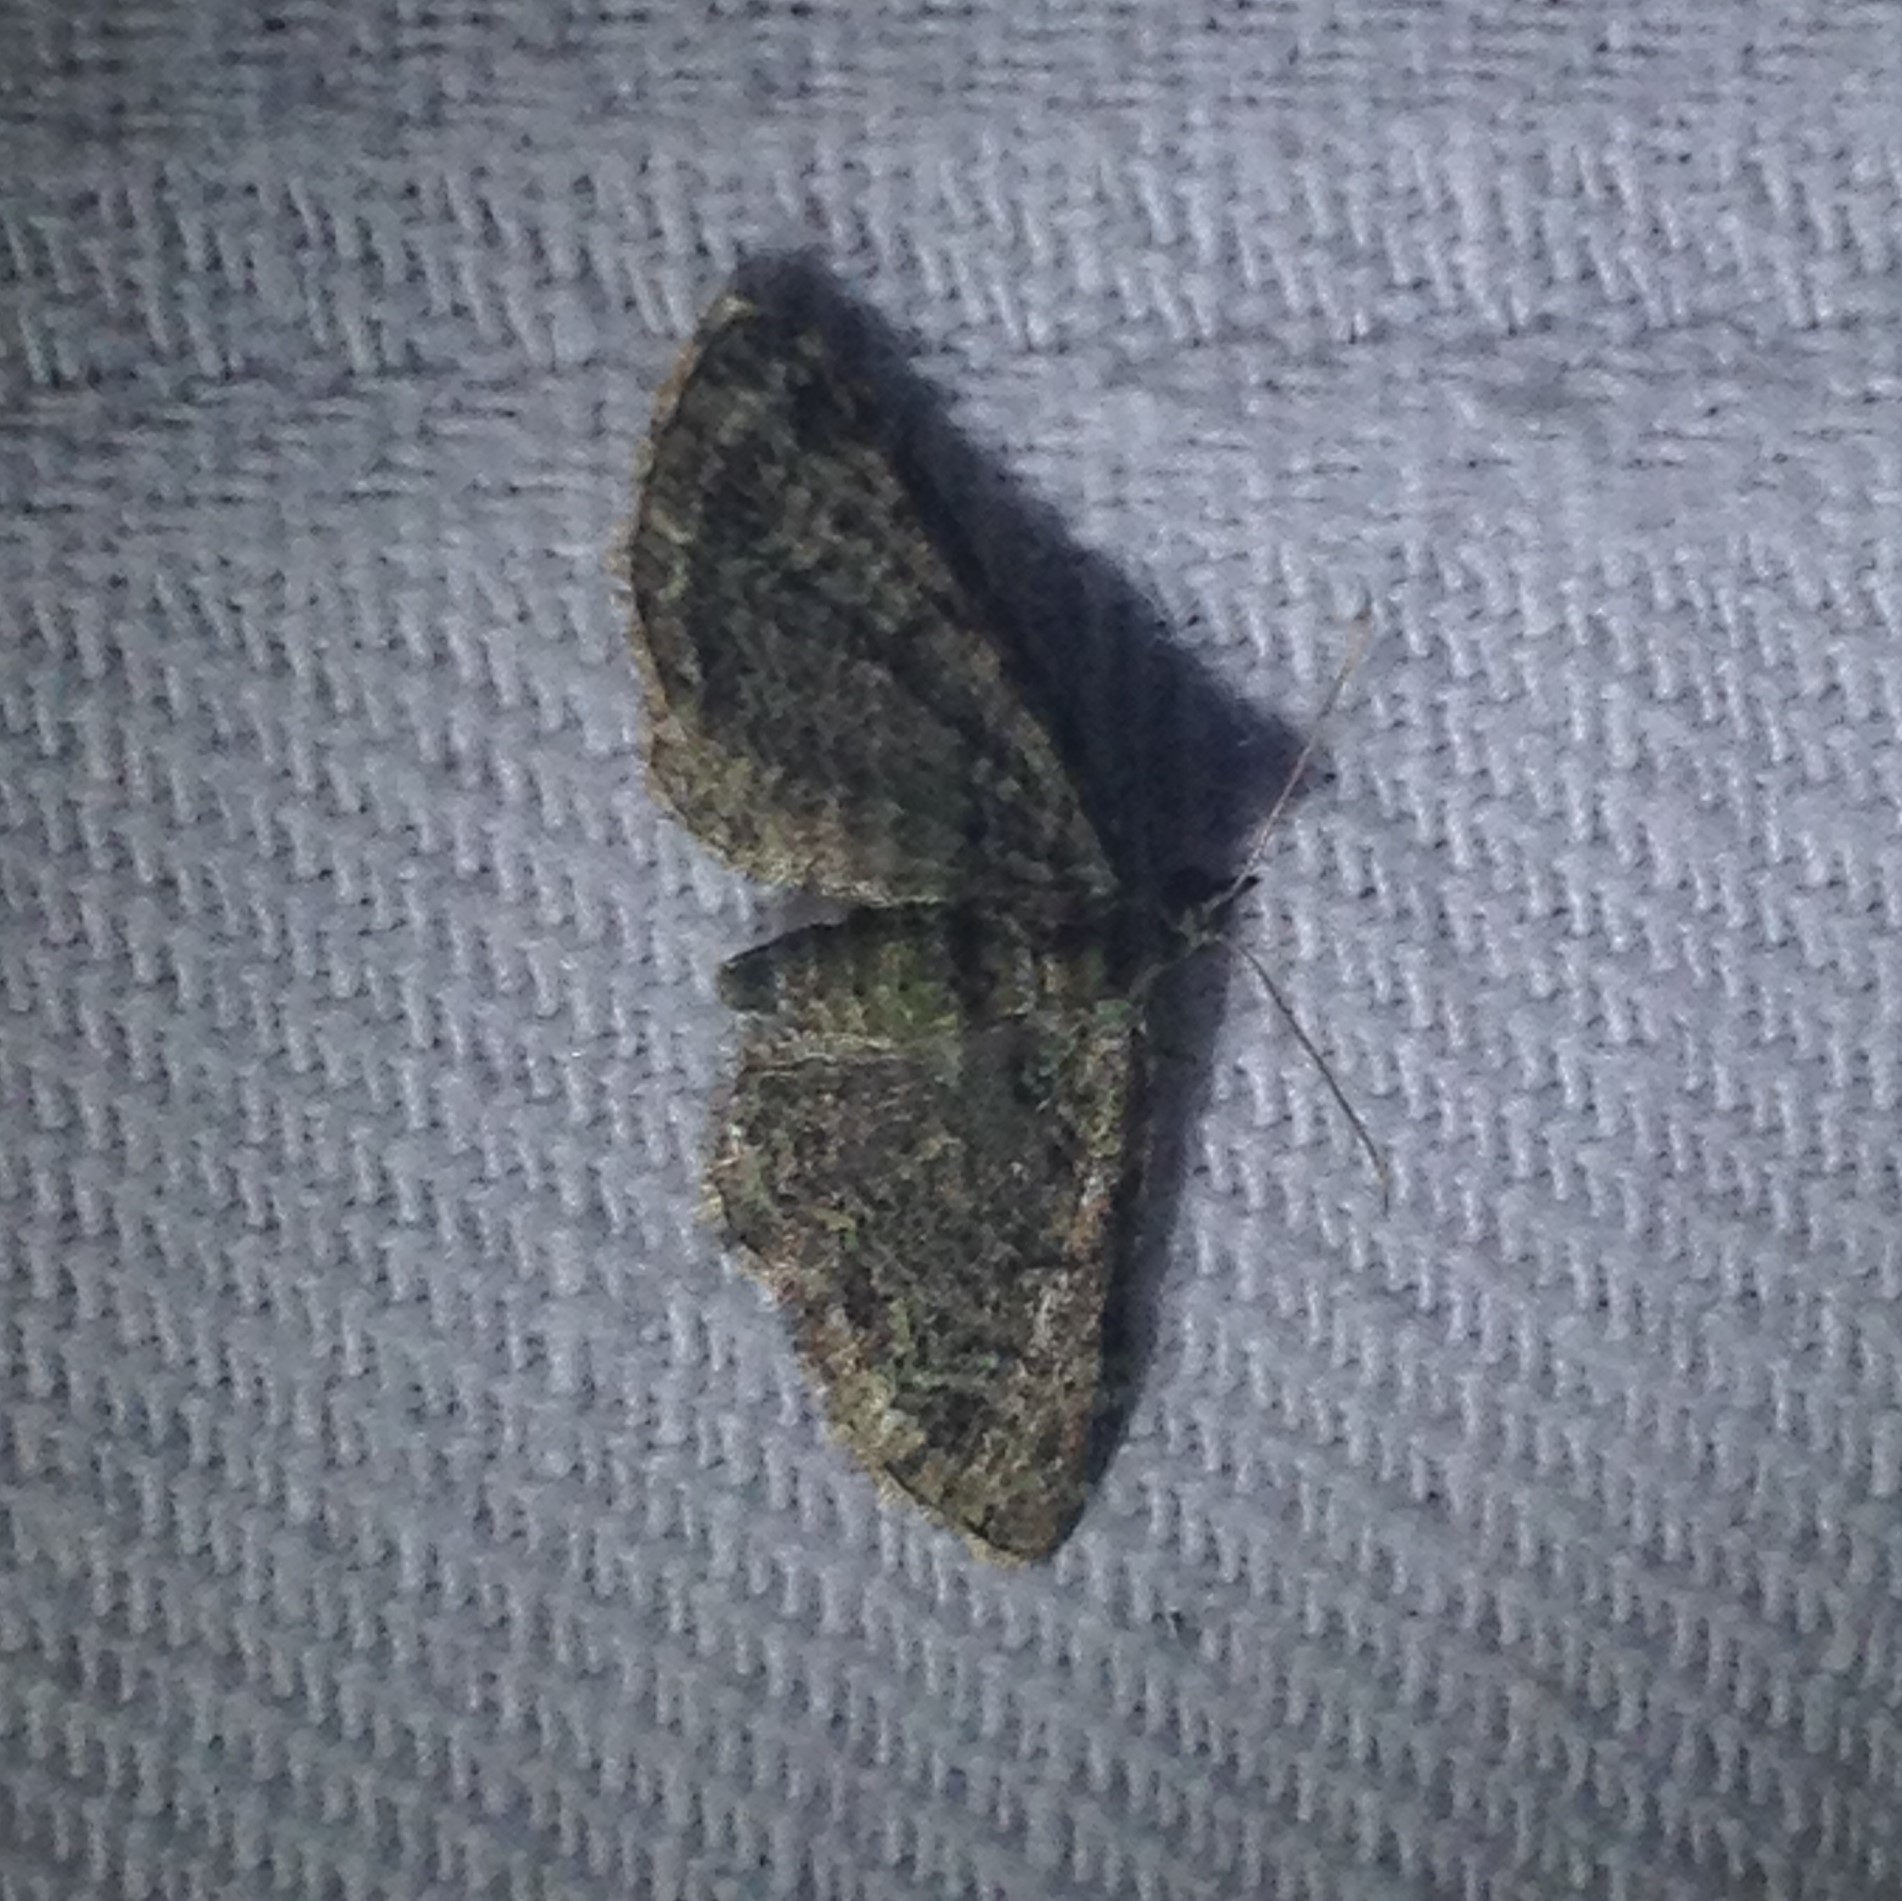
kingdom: Animalia
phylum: Arthropoda
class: Insecta
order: Lepidoptera
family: Geometridae
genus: Pasiphila
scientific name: Pasiphila rectangulata
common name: Green pug
